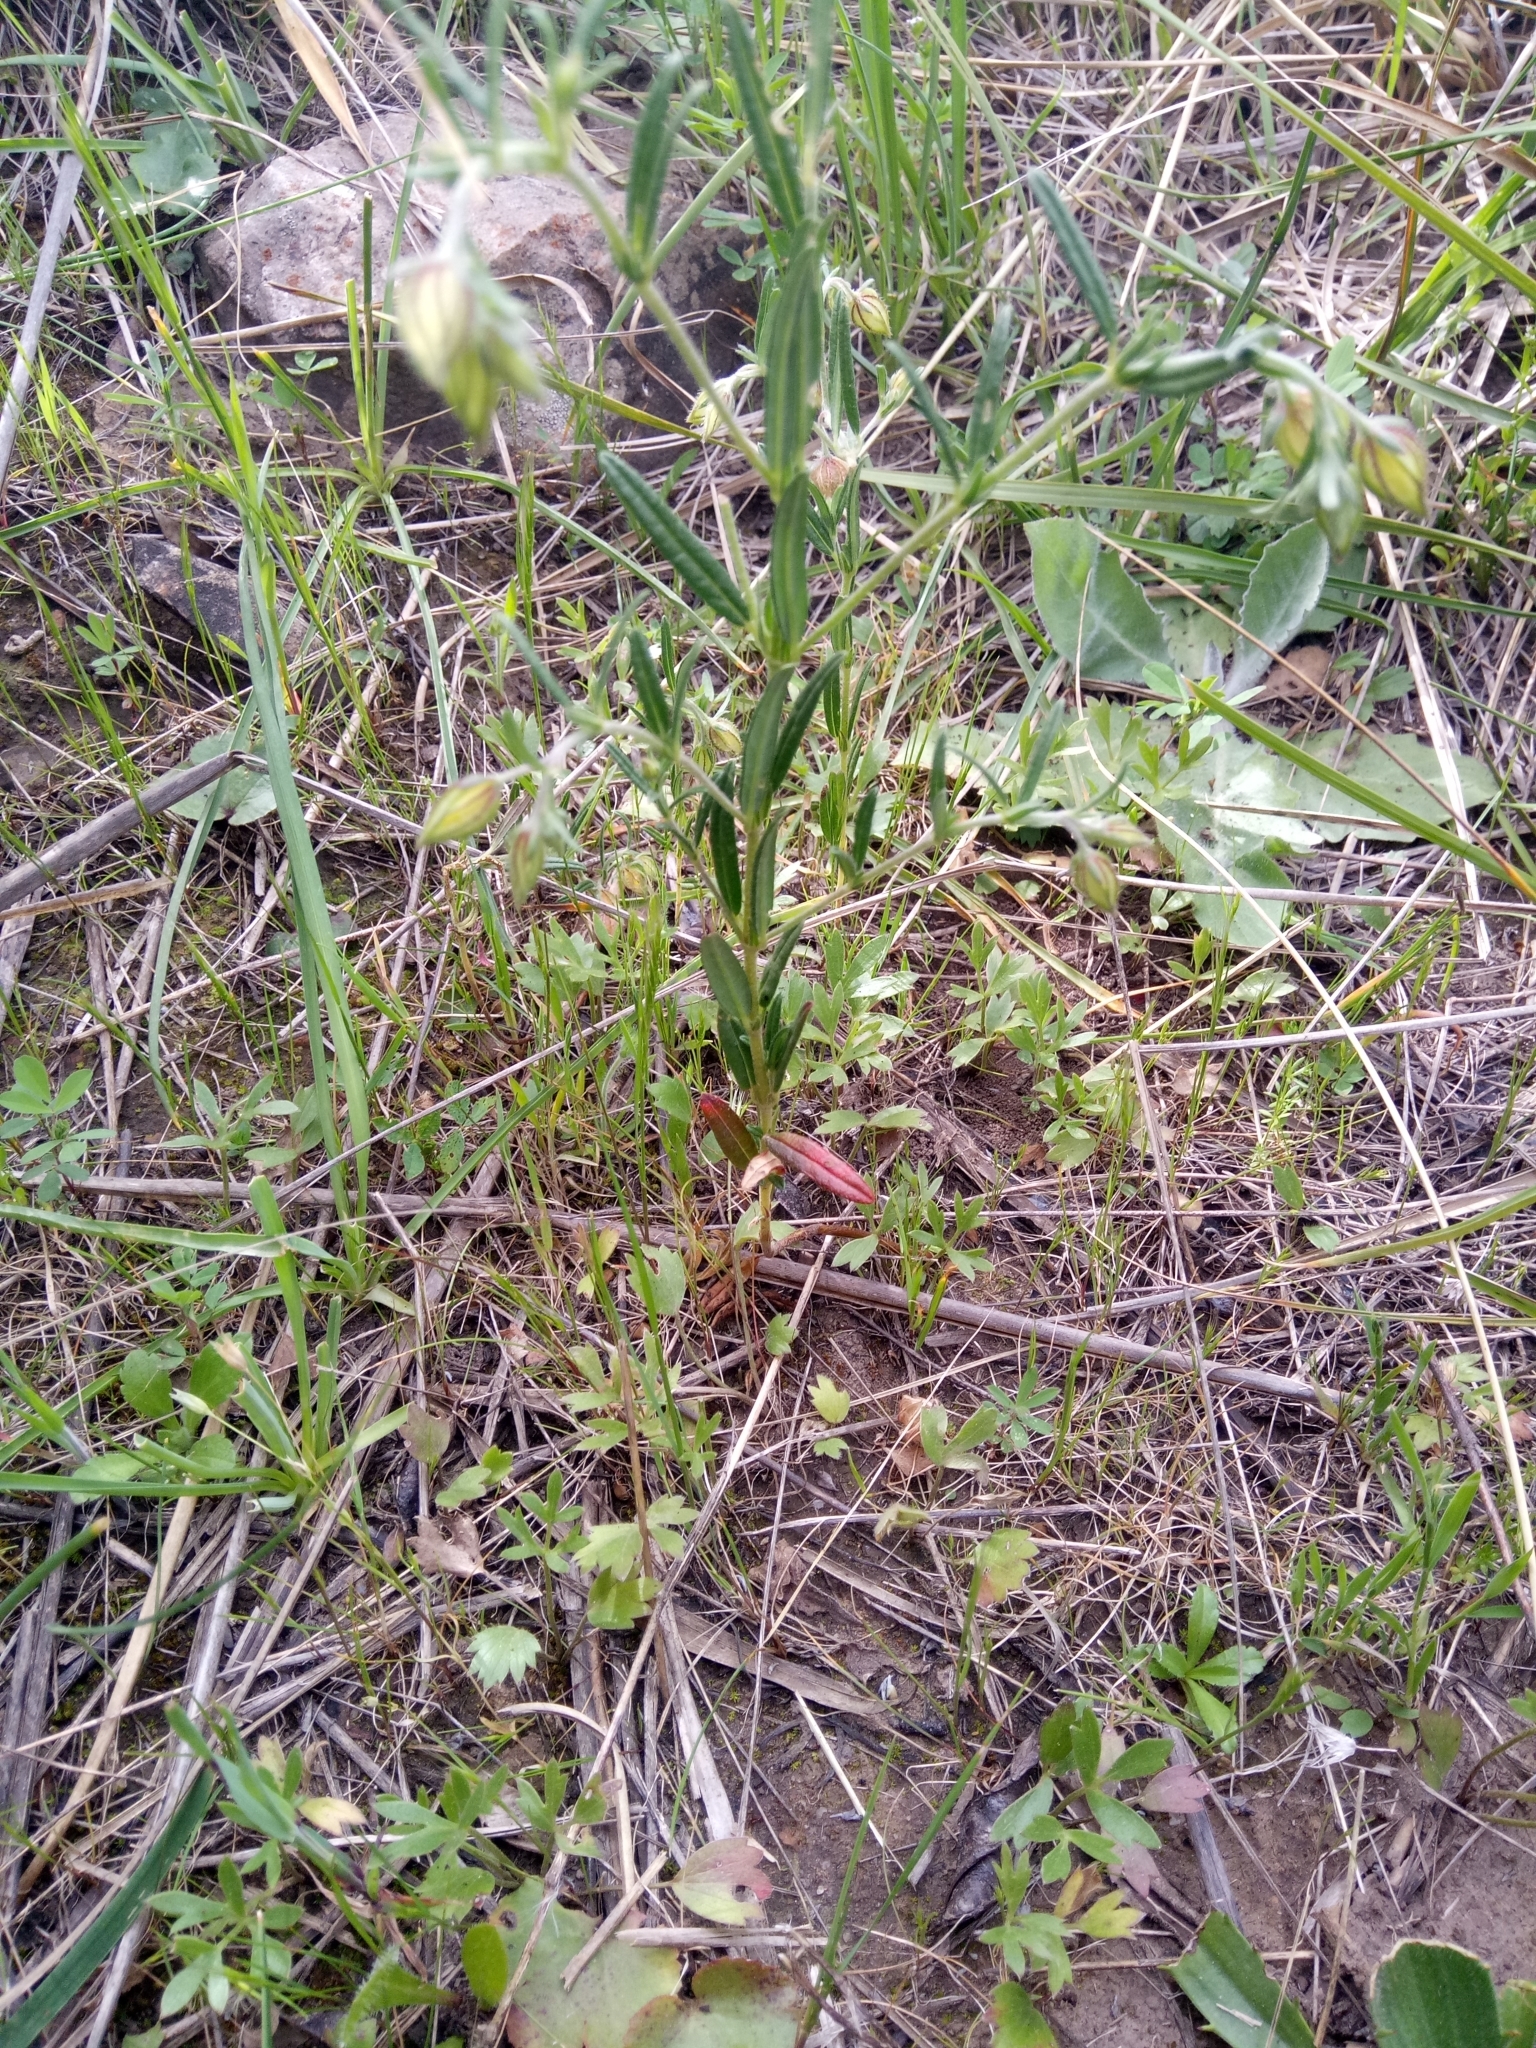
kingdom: Plantae
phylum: Tracheophyta
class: Magnoliopsida
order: Malvales
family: Cistaceae
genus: Helianthemum
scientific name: Helianthemum aegyptiacum
